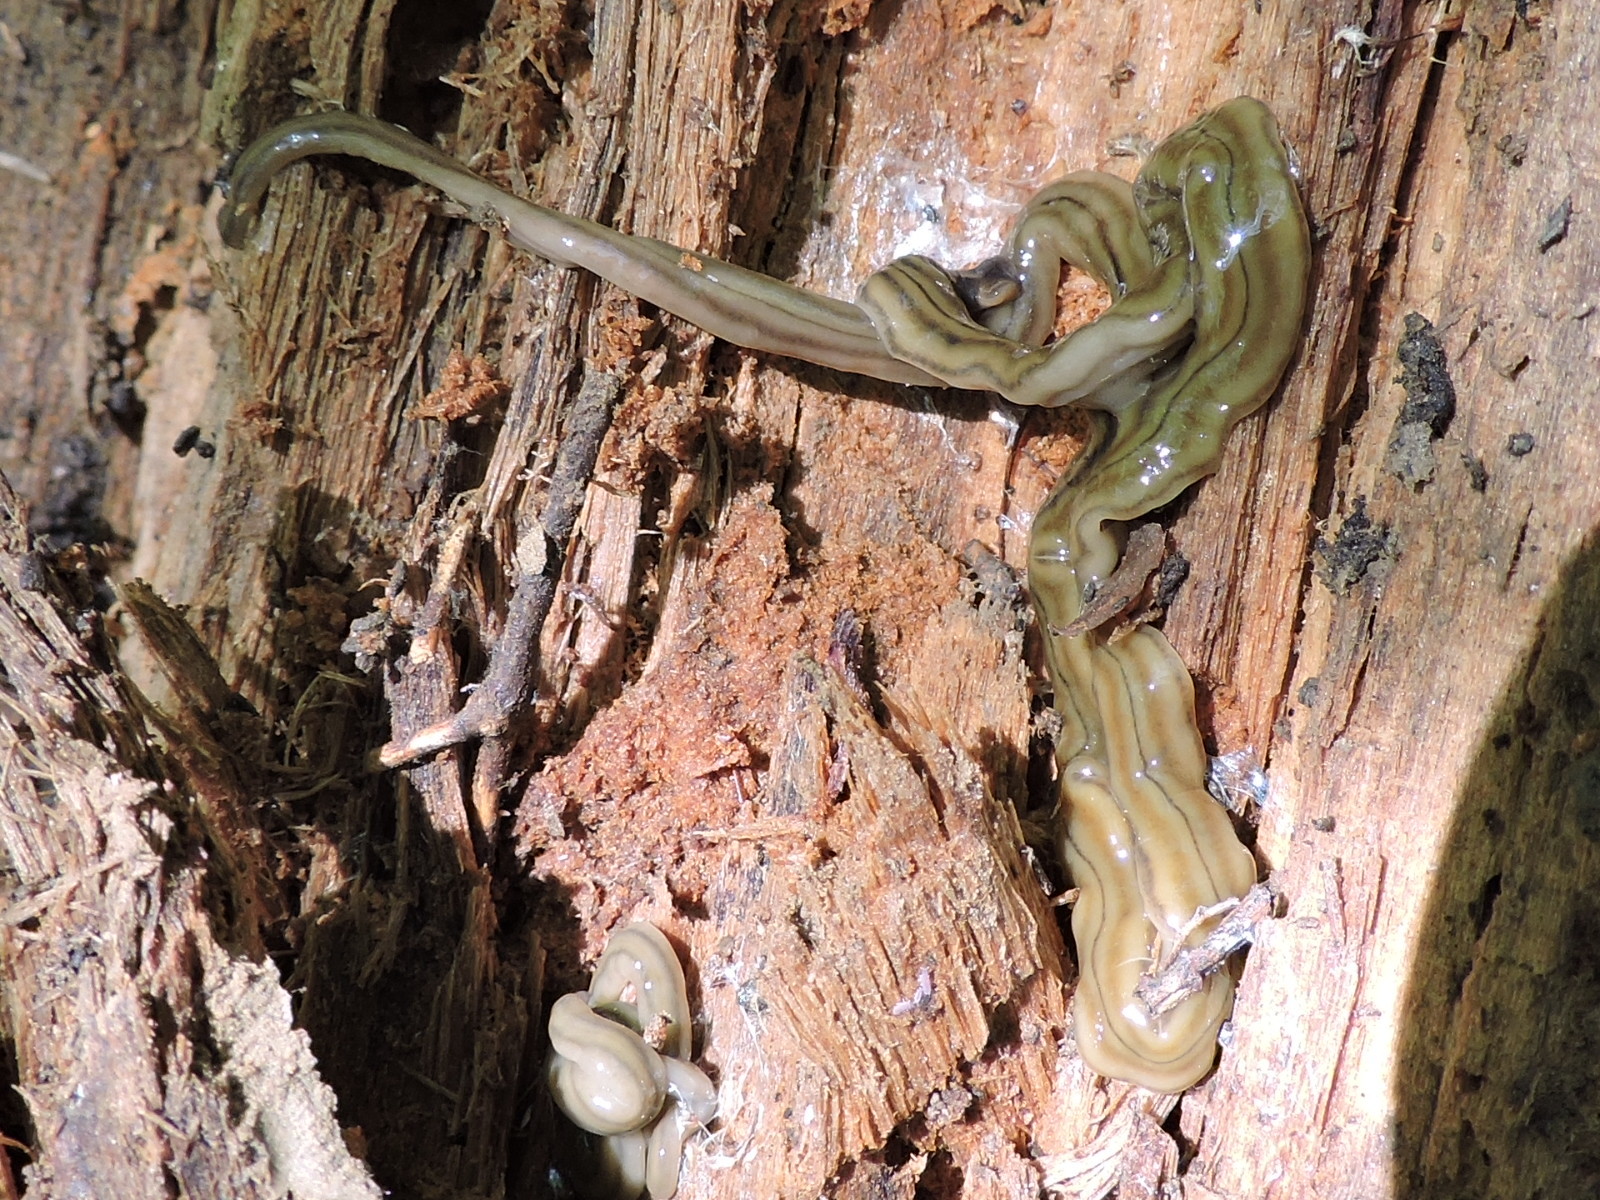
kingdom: Animalia
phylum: Platyhelminthes
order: Tricladida
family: Geoplanidae
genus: Bipalium
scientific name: Bipalium kewense
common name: Hammerhead flatworm
